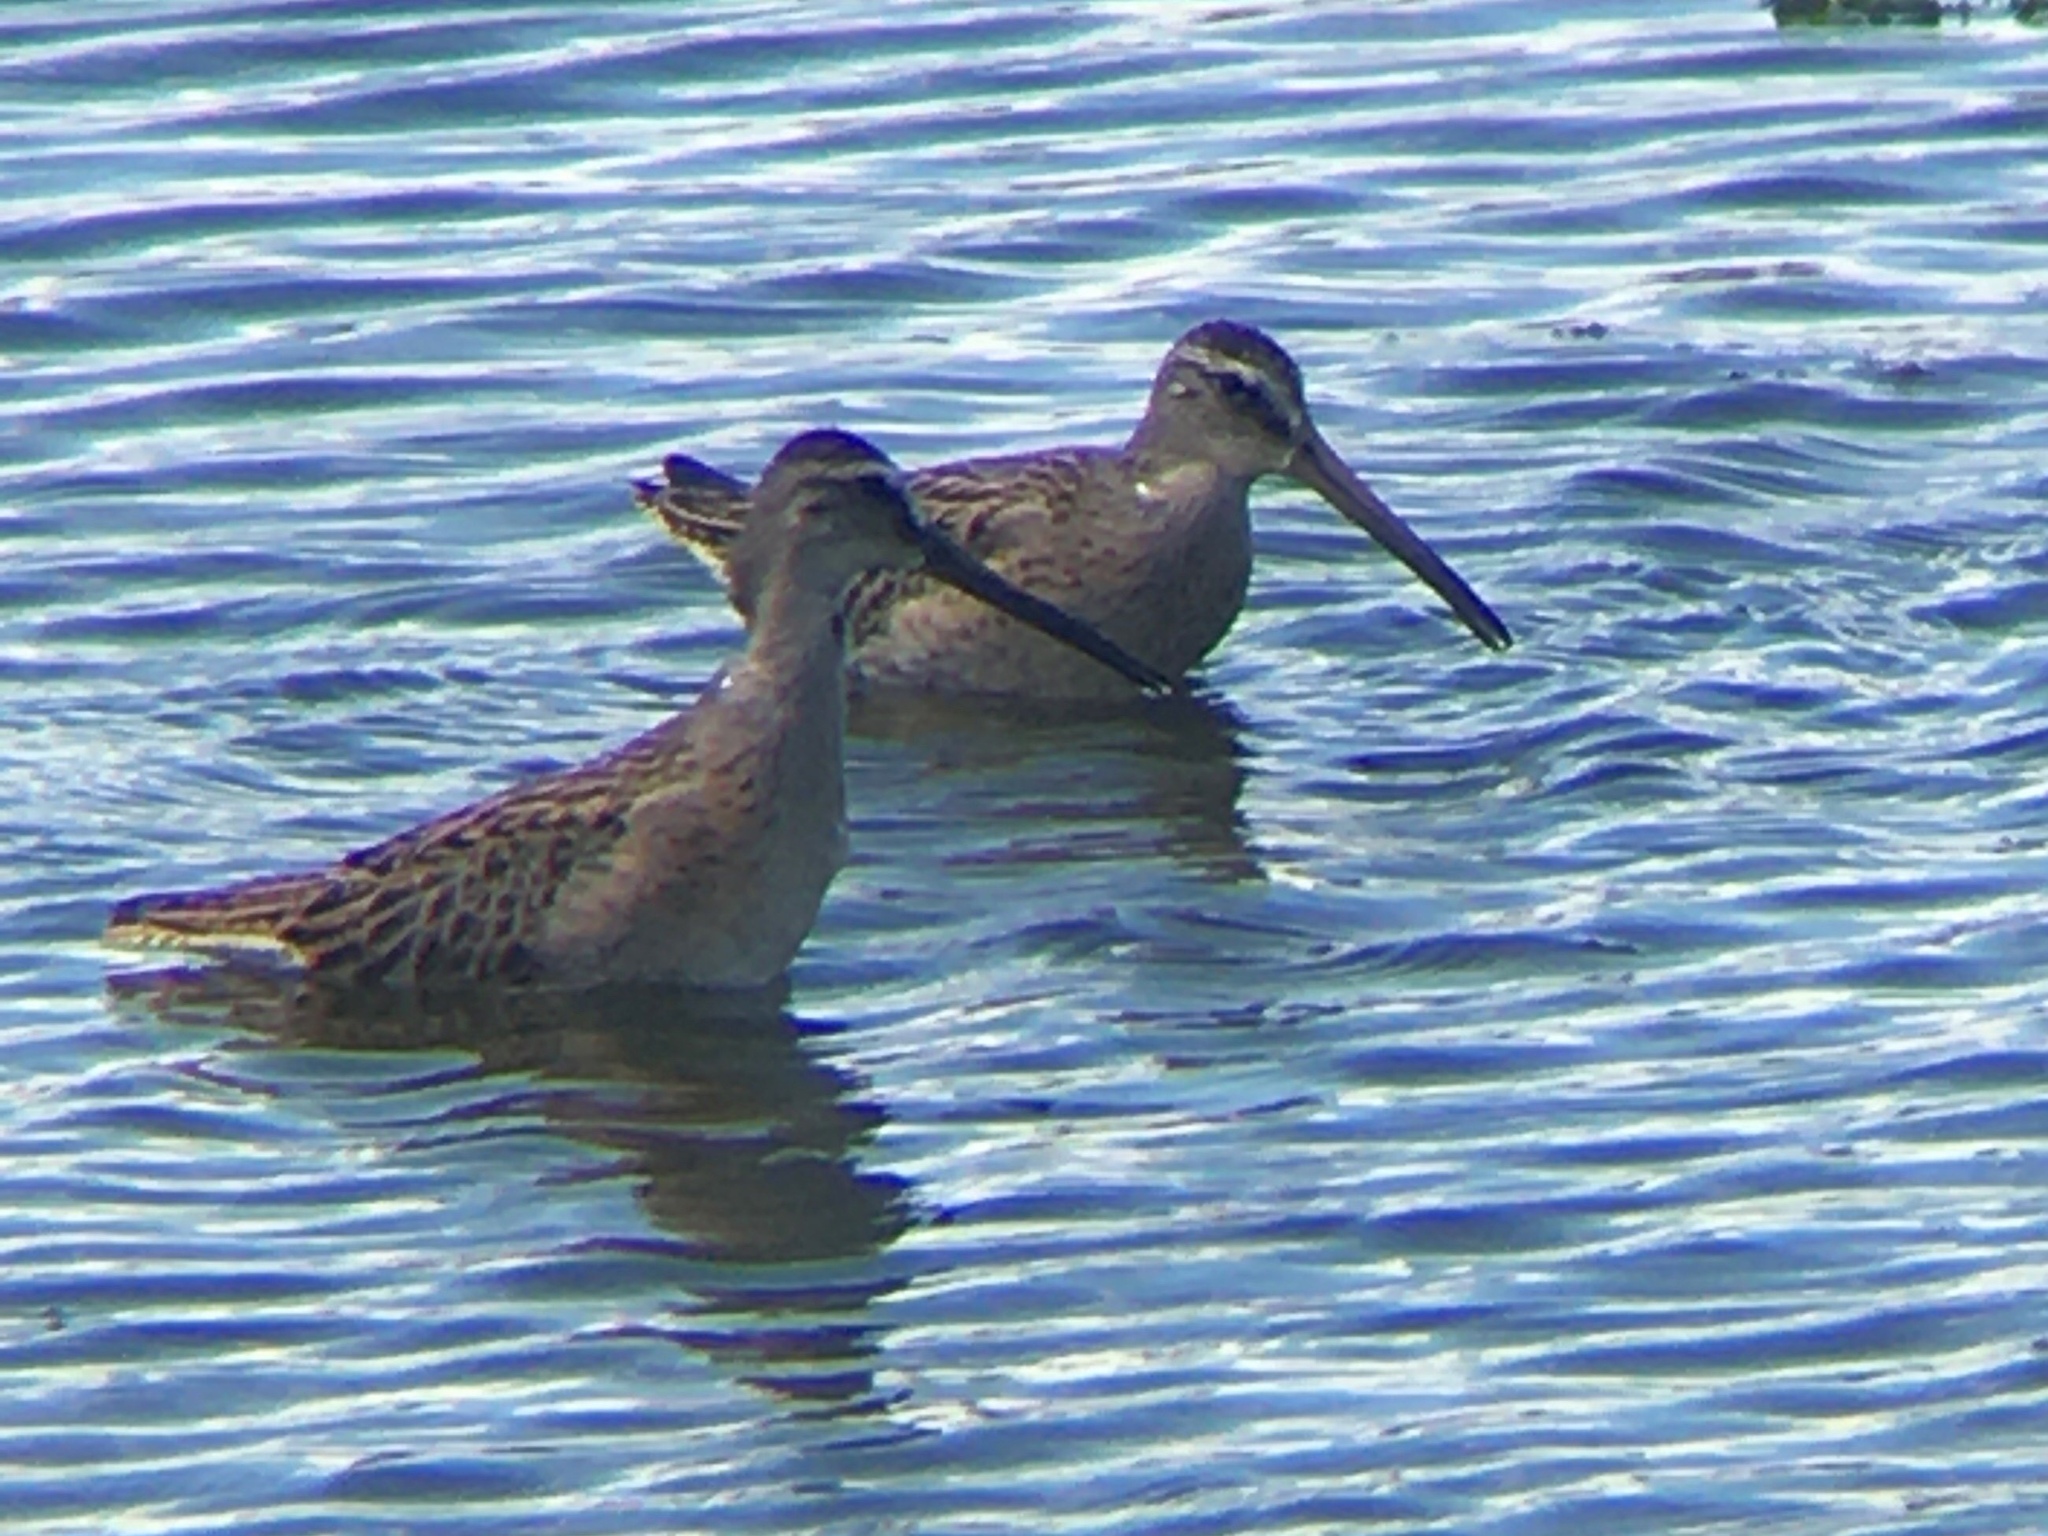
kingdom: Animalia
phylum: Chordata
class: Aves
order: Charadriiformes
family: Scolopacidae
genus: Limnodromus
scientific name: Limnodromus griseus
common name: Short-billed dowitcher
